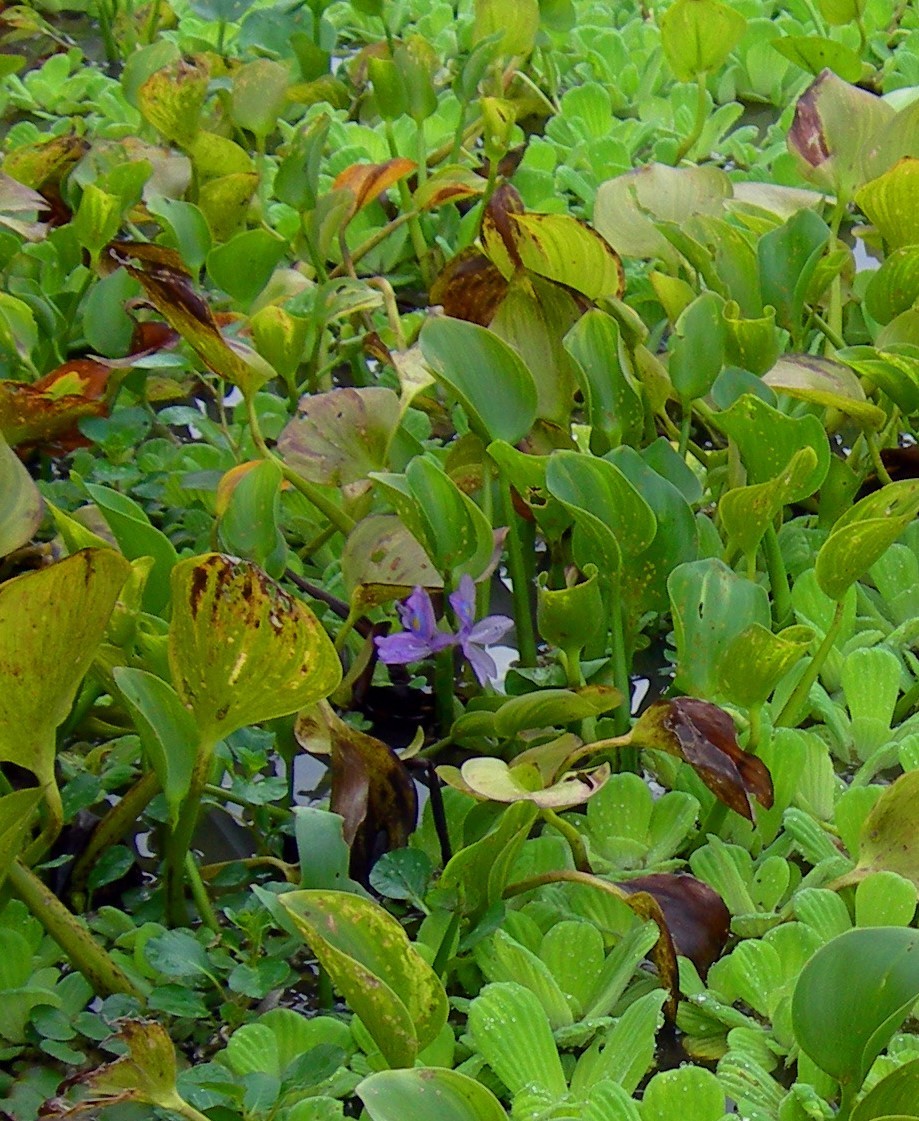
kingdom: Plantae
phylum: Tracheophyta
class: Liliopsida
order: Commelinales
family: Pontederiaceae
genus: Pontederia
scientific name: Pontederia crassipes
